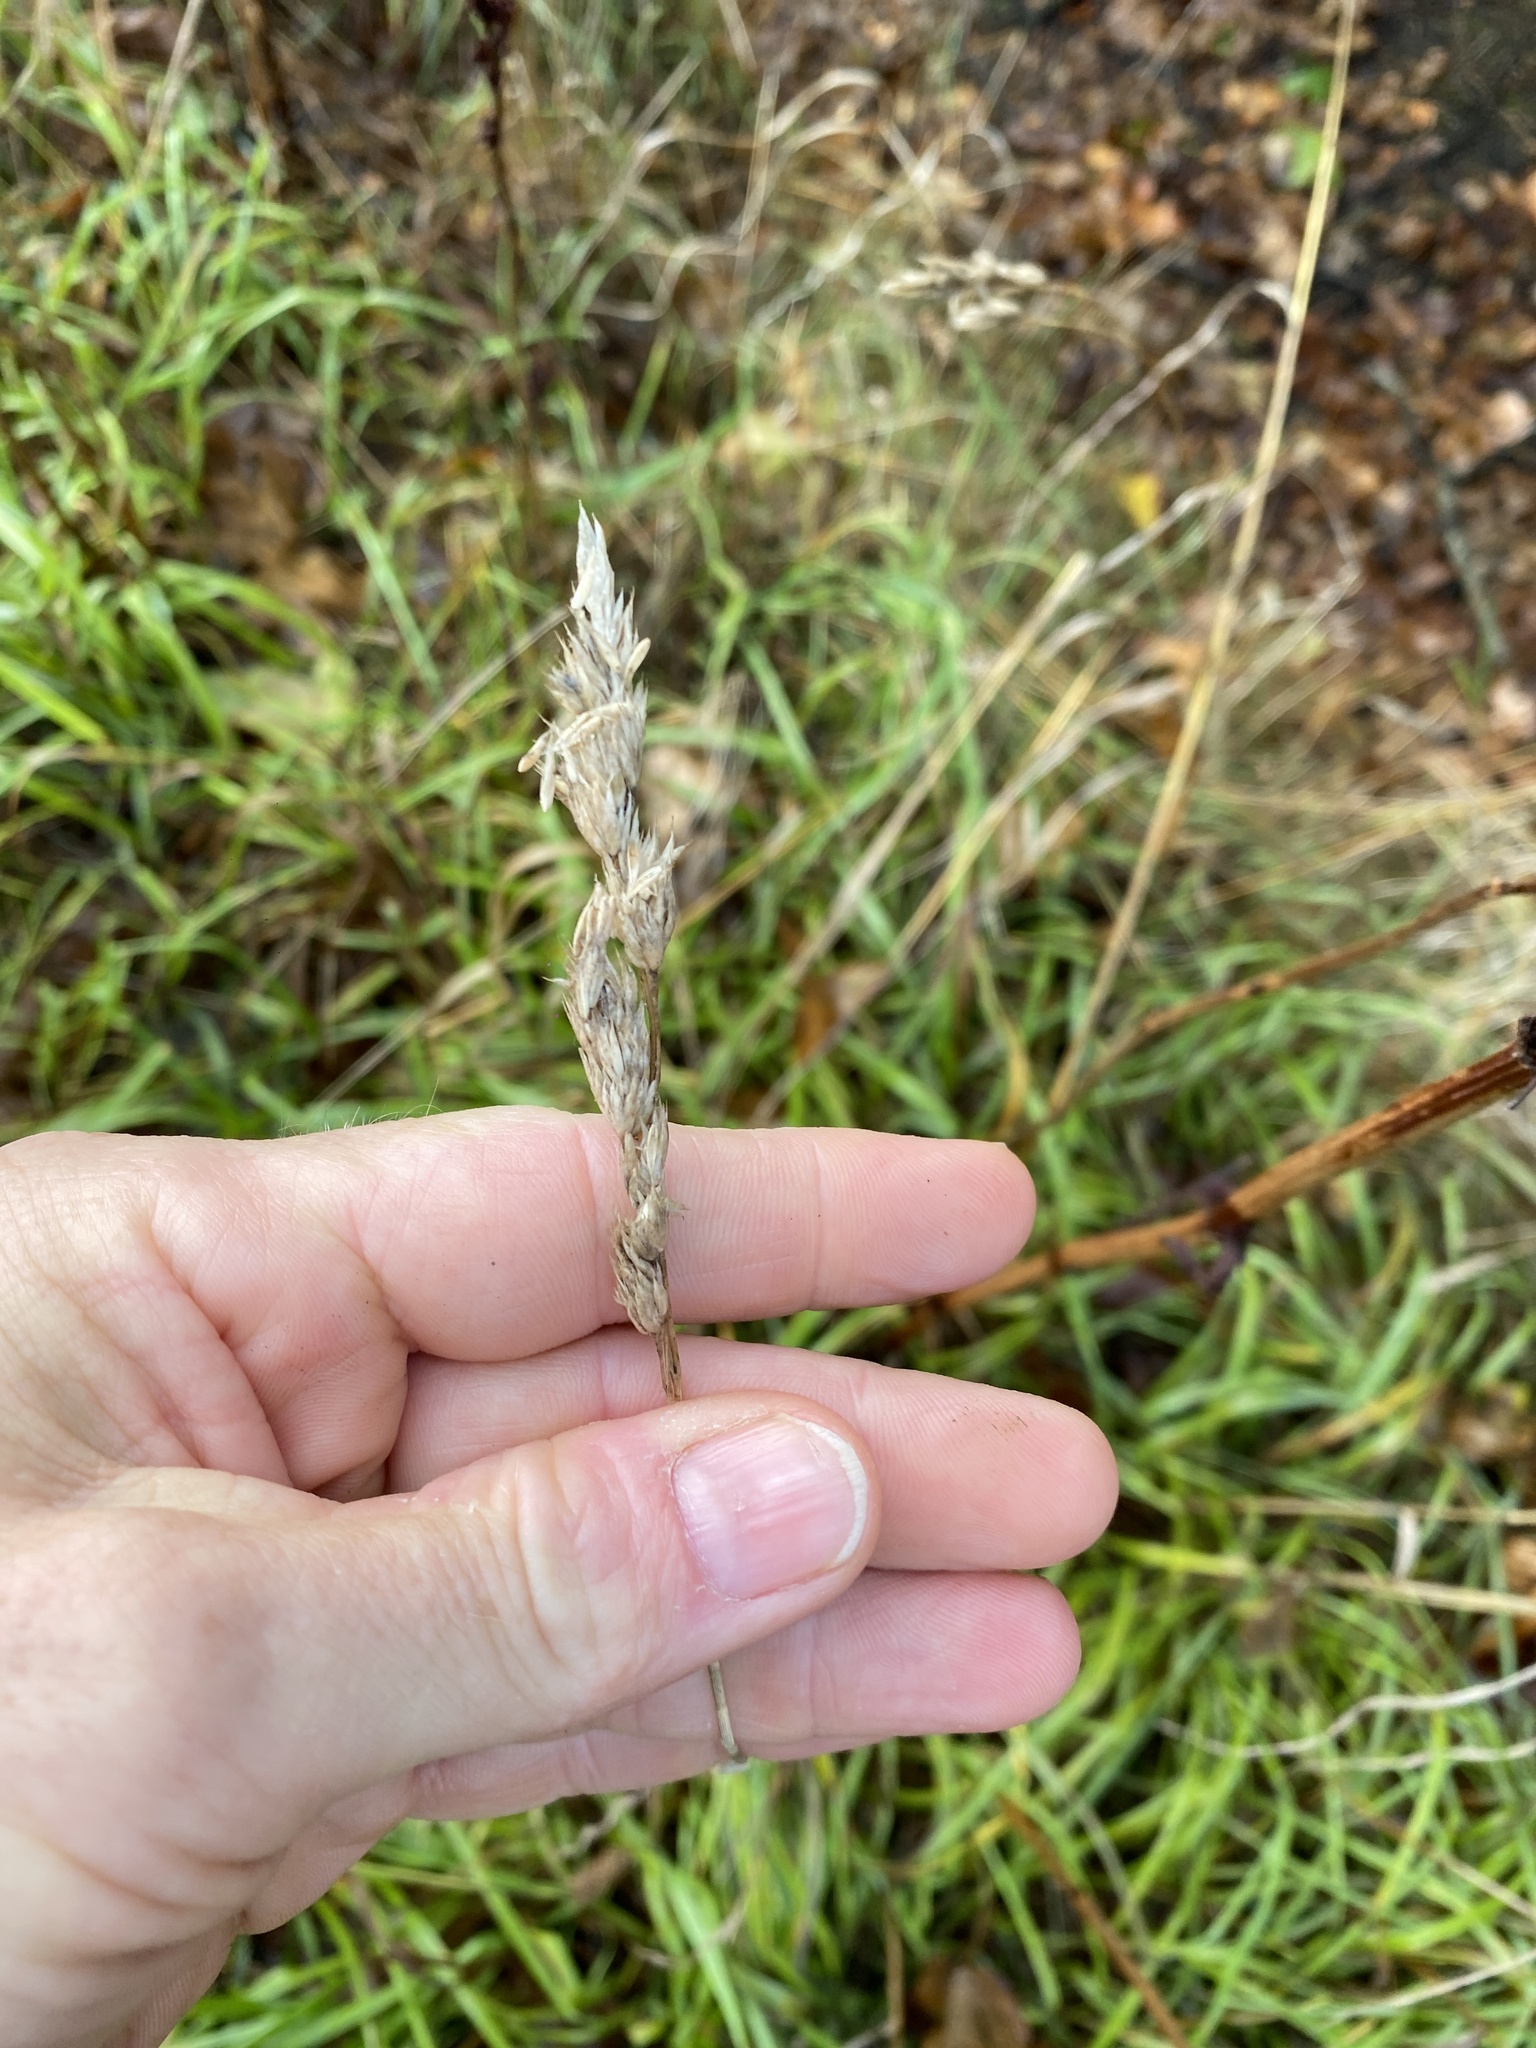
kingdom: Plantae
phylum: Tracheophyta
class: Liliopsida
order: Poales
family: Poaceae
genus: Dactylis
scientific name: Dactylis glomerata
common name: Orchardgrass
